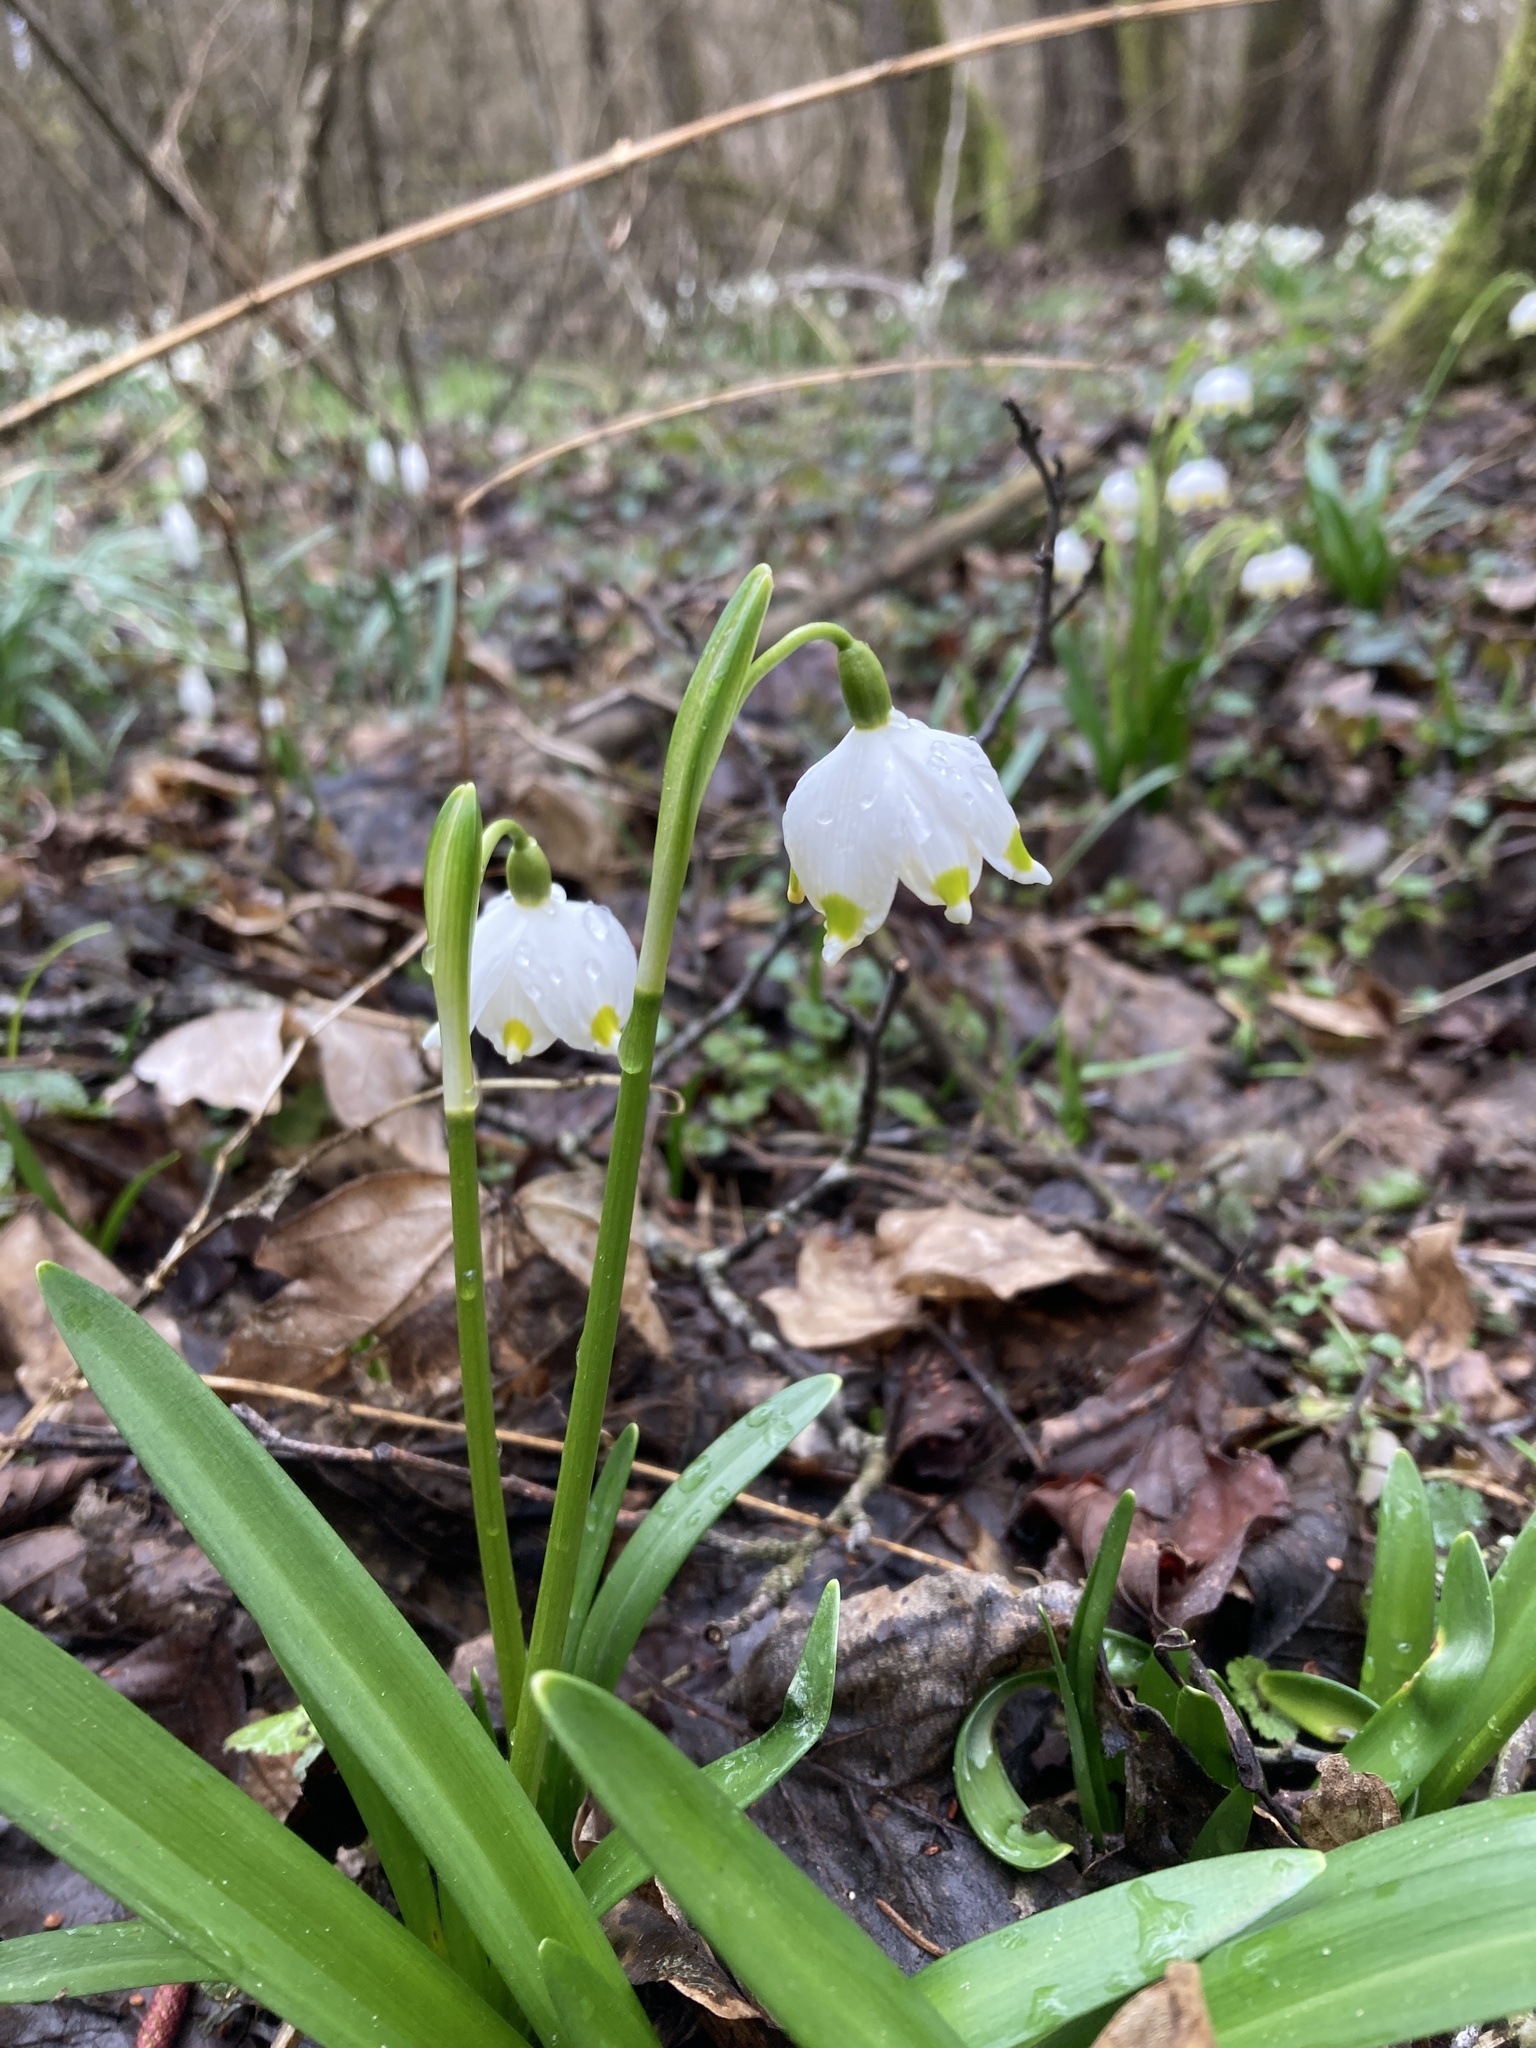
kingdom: Plantae
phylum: Tracheophyta
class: Liliopsida
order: Asparagales
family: Amaryllidaceae
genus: Leucojum
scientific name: Leucojum vernum
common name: Spring snowflake
